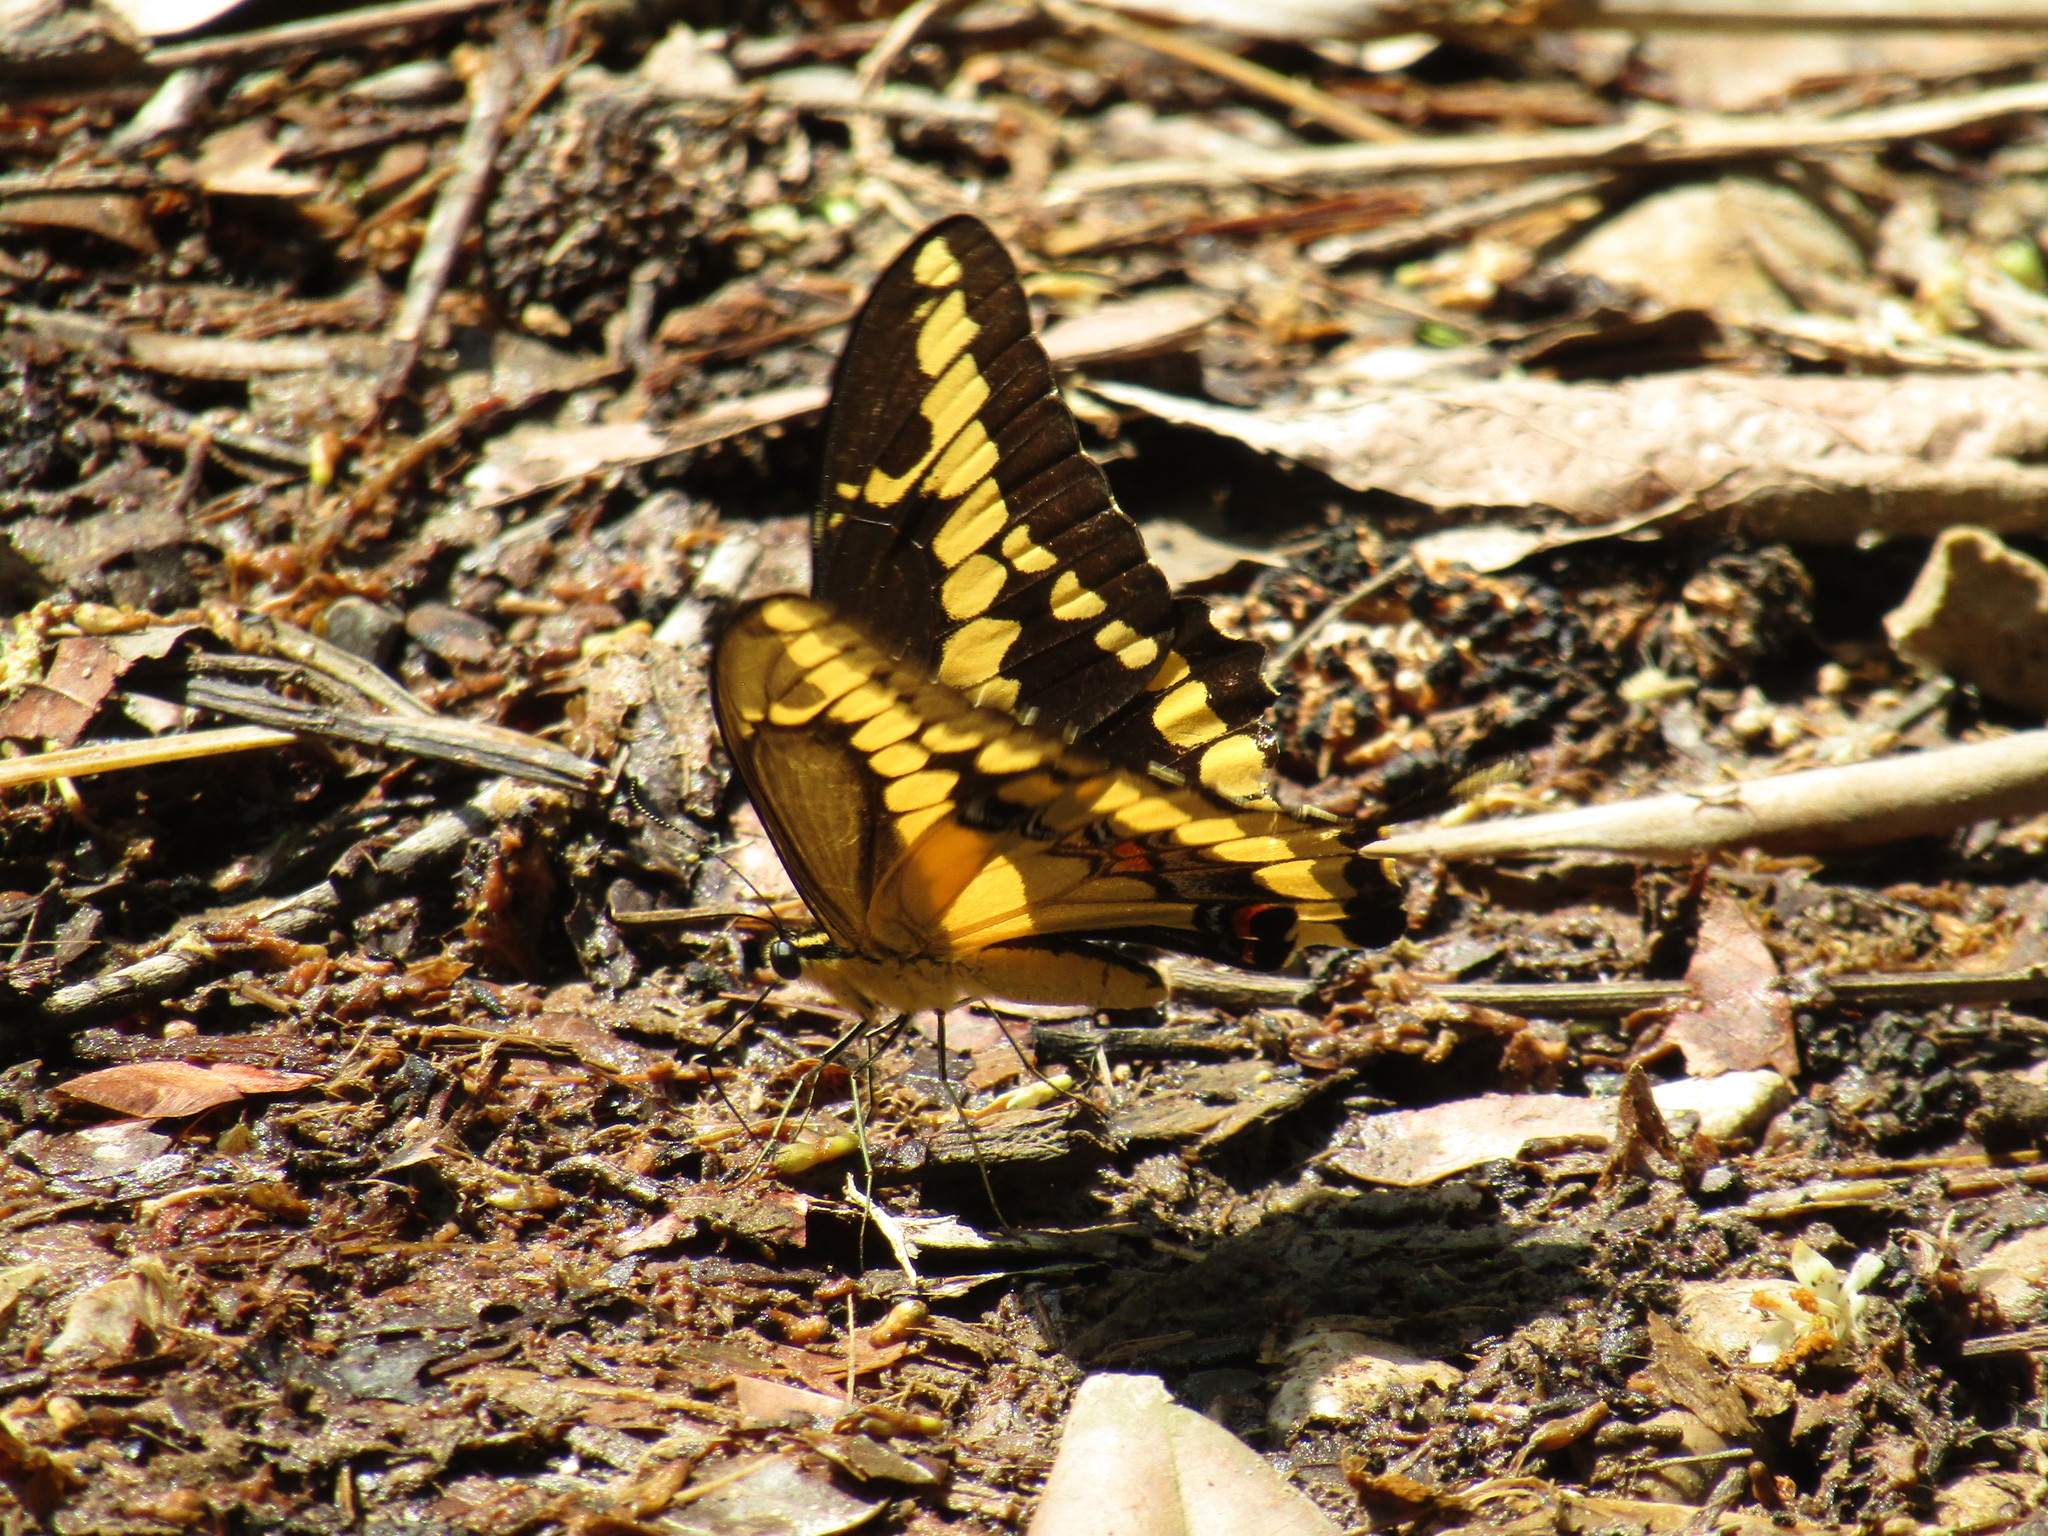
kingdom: Animalia
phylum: Arthropoda
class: Insecta
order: Lepidoptera
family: Papilionidae
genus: Papilio
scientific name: Papilio rumiko
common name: Western giant swallowtail
